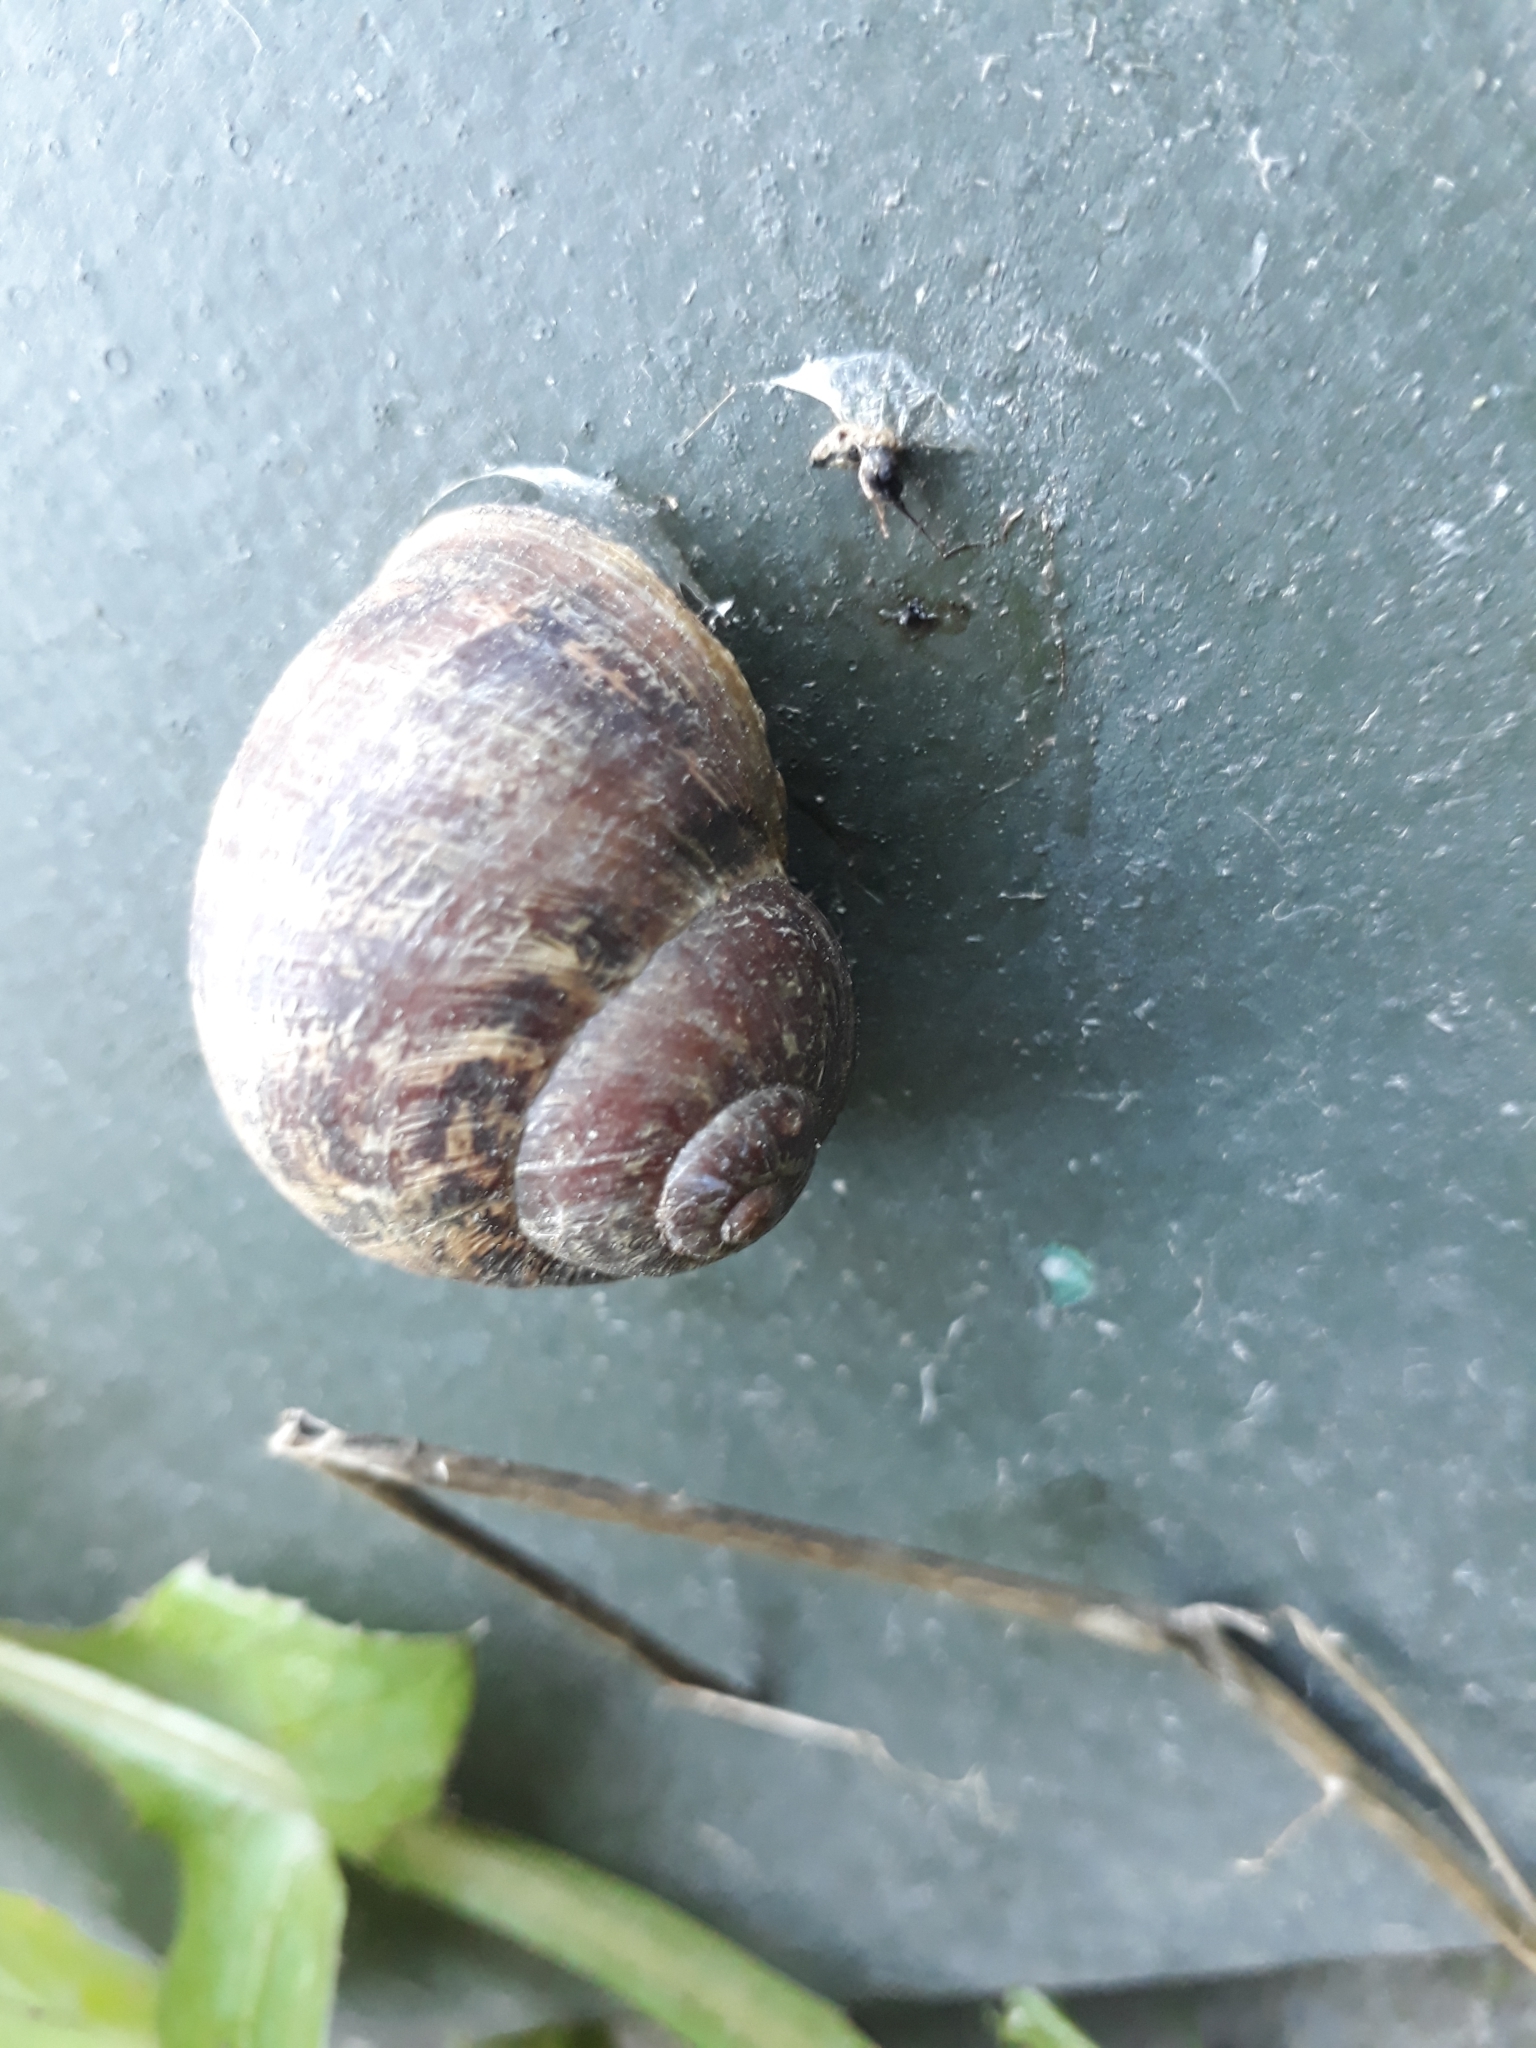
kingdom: Animalia
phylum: Mollusca
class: Gastropoda
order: Stylommatophora
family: Helicidae
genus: Cornu
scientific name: Cornu aspersum
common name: Brown garden snail
